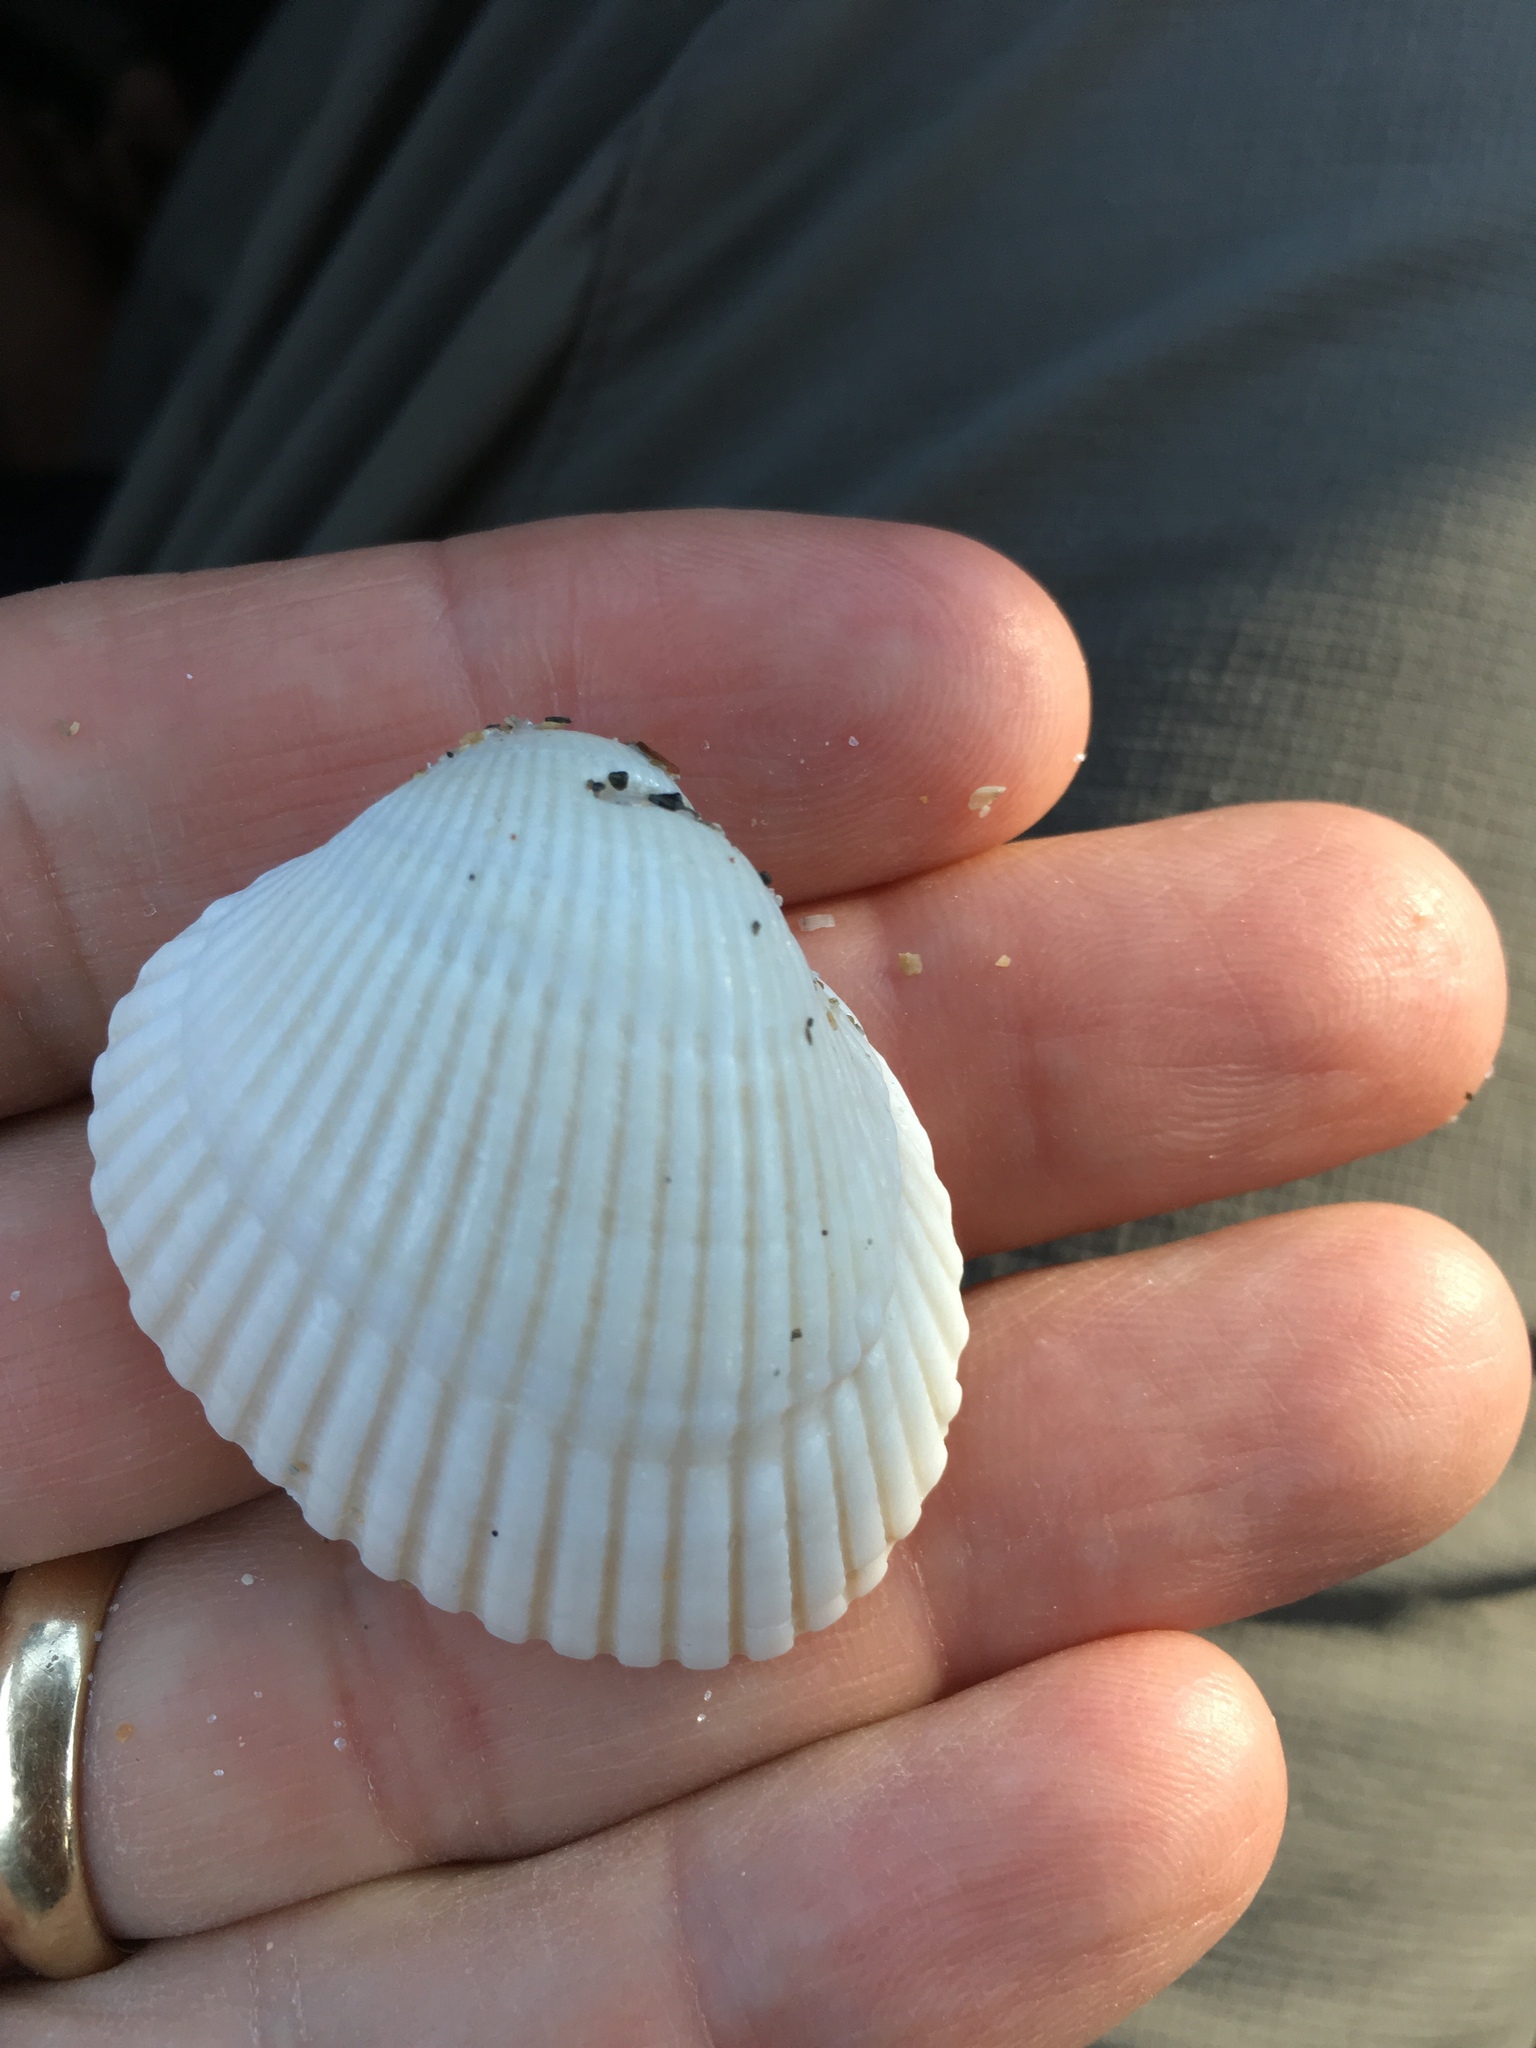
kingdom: Animalia
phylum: Mollusca
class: Bivalvia
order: Arcida
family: Arcidae
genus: Lunarca
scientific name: Lunarca ovalis
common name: Blood ark
